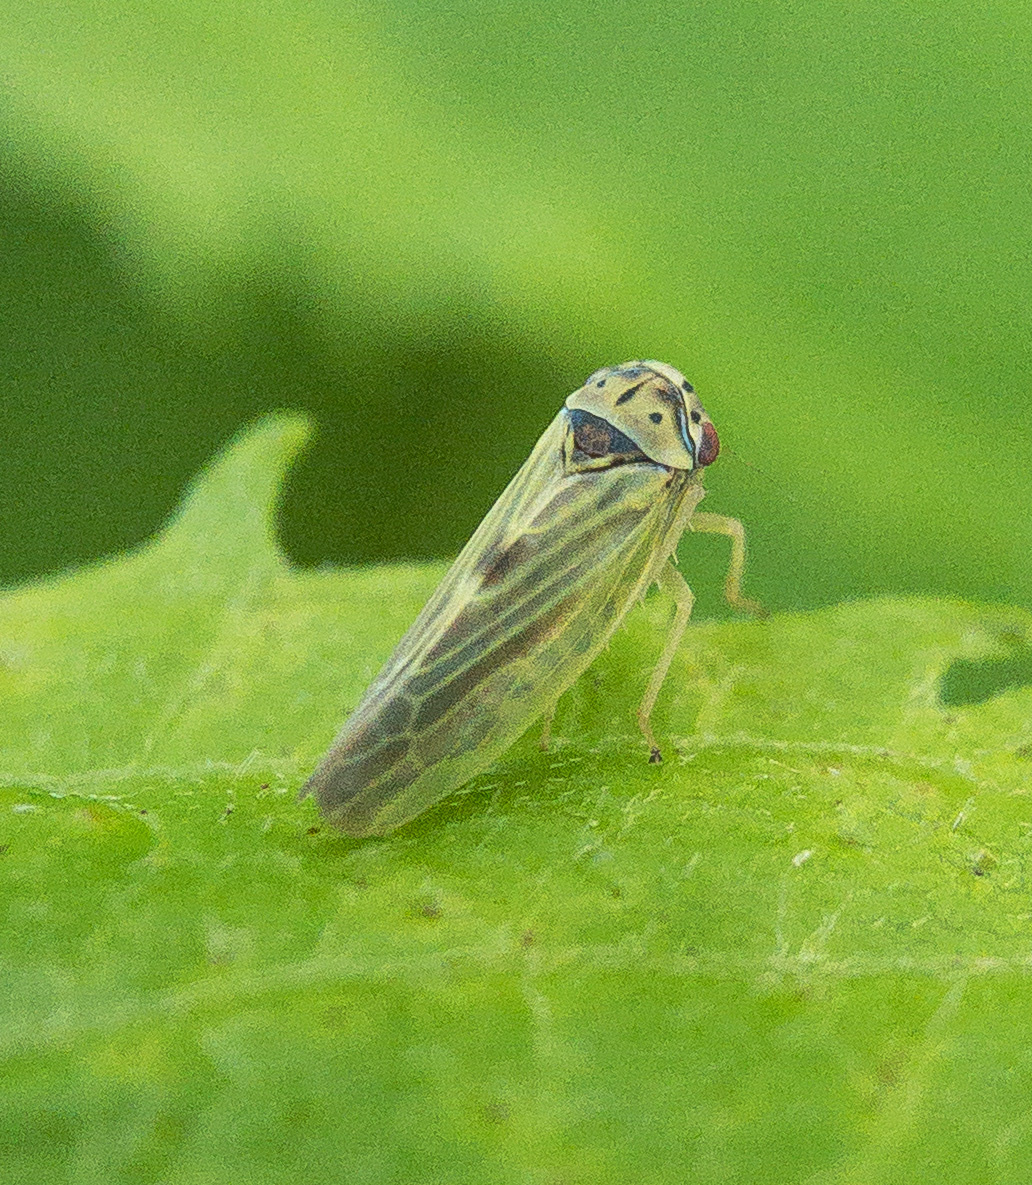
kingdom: Animalia
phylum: Arthropoda
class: Insecta
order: Hemiptera
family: Cicadellidae
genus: Agalliopsis
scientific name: Agalliopsis ancistra
